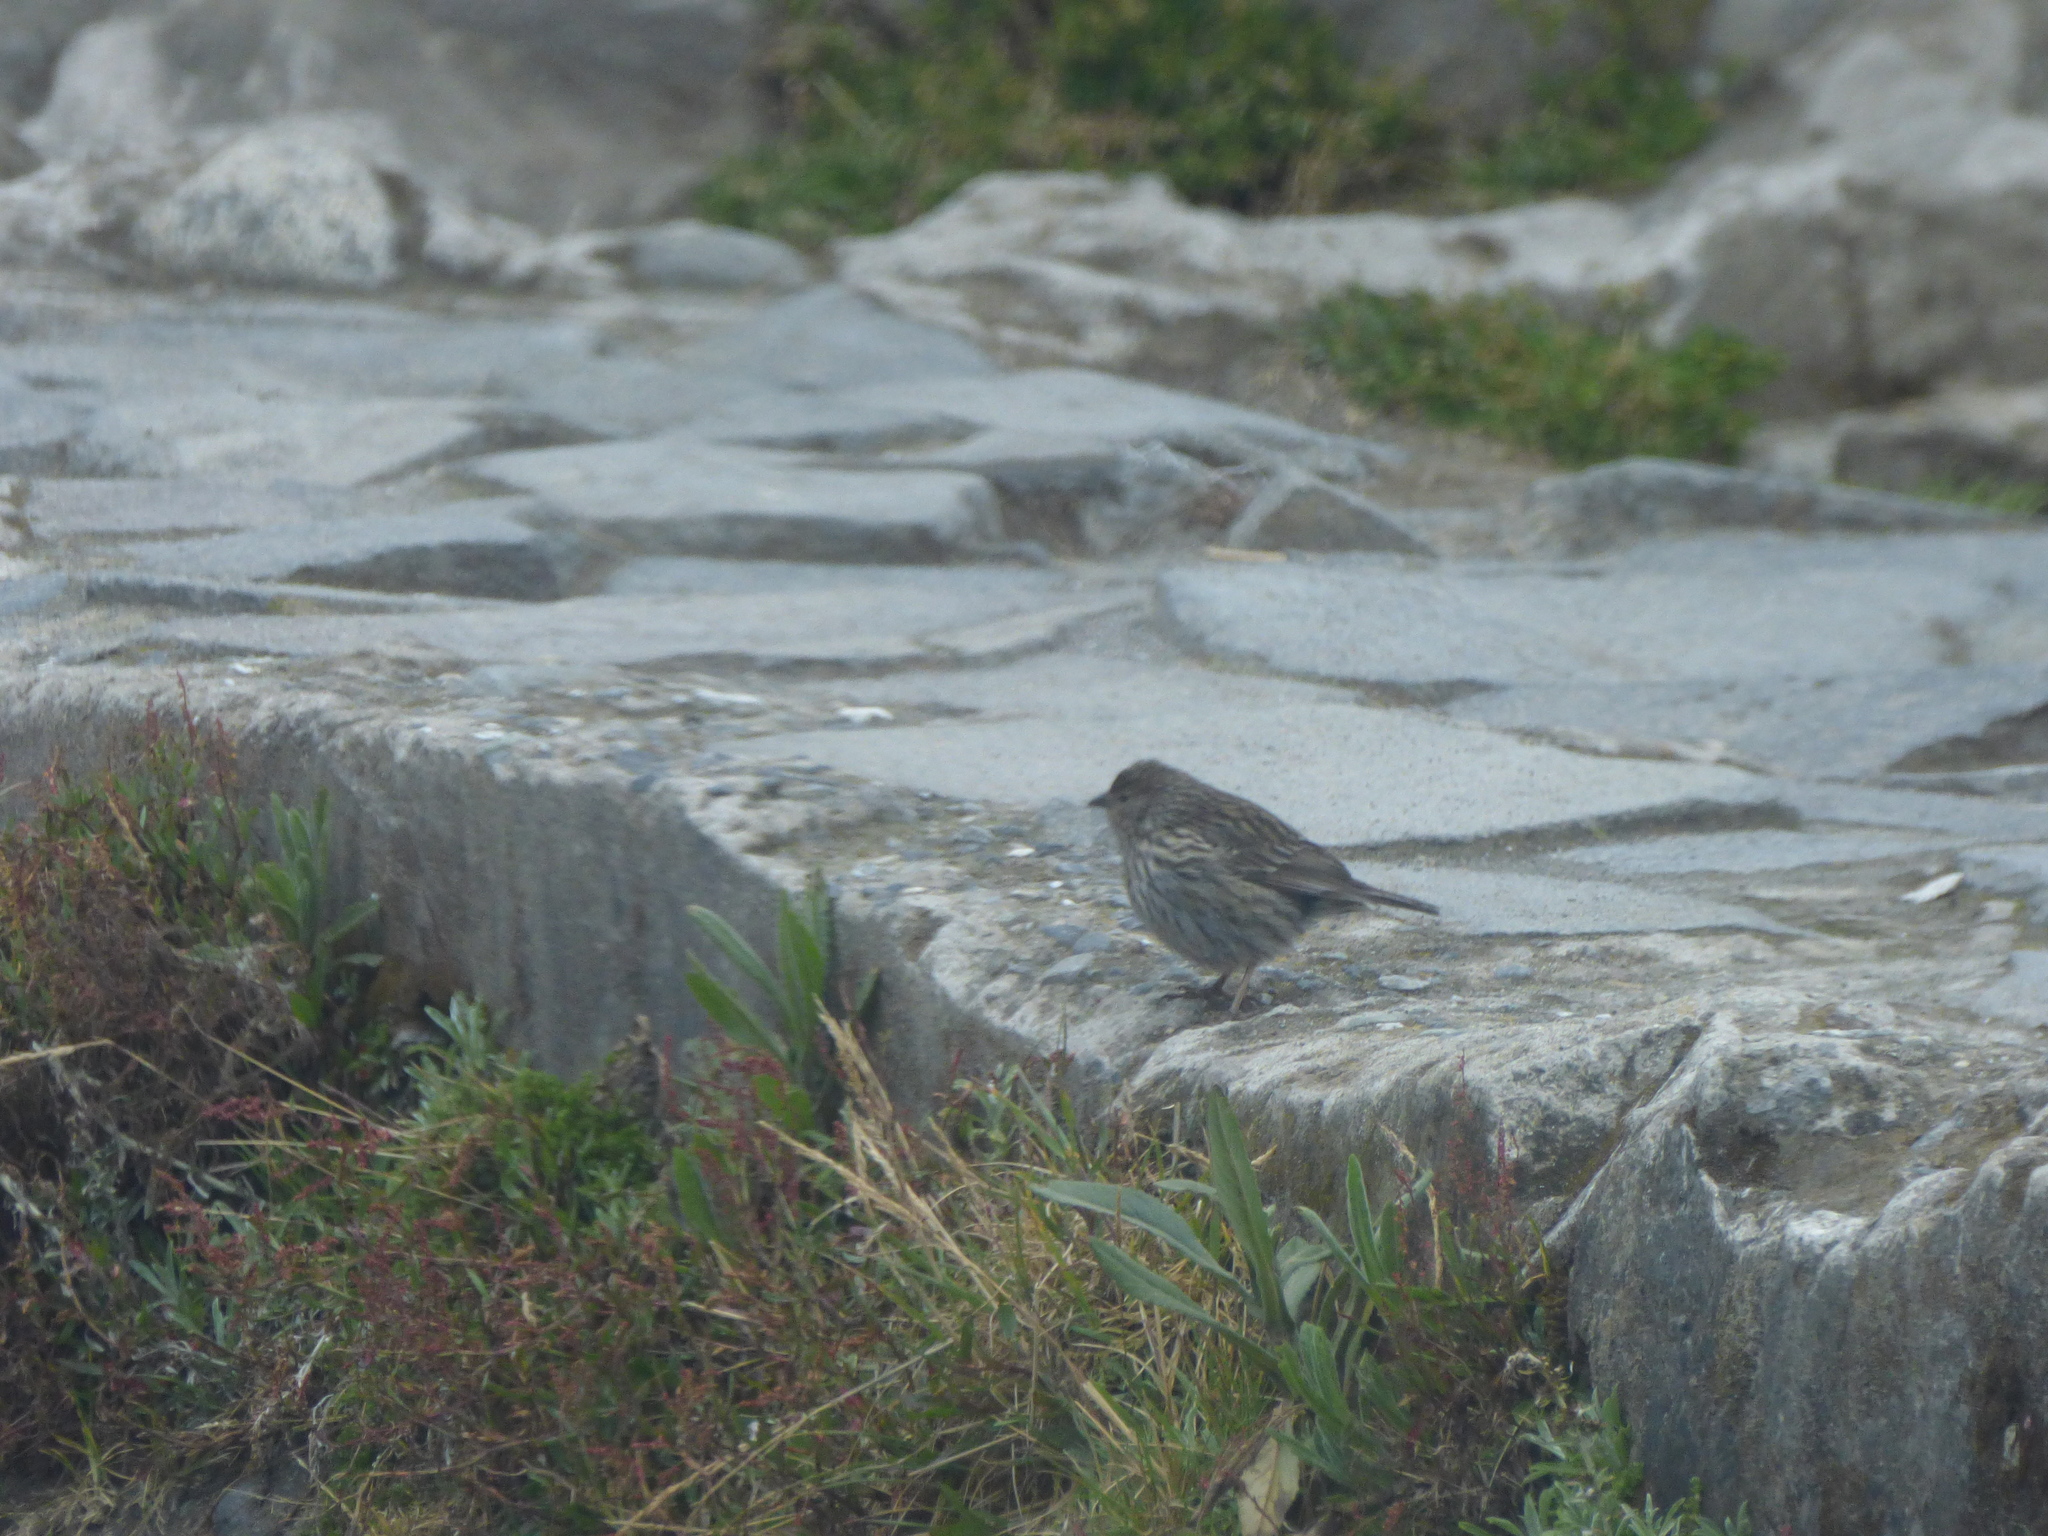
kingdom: Animalia
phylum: Chordata
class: Aves
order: Passeriformes
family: Thraupidae
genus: Geospizopsis
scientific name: Geospizopsis unicolor
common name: Plumbeous sierra-finch
